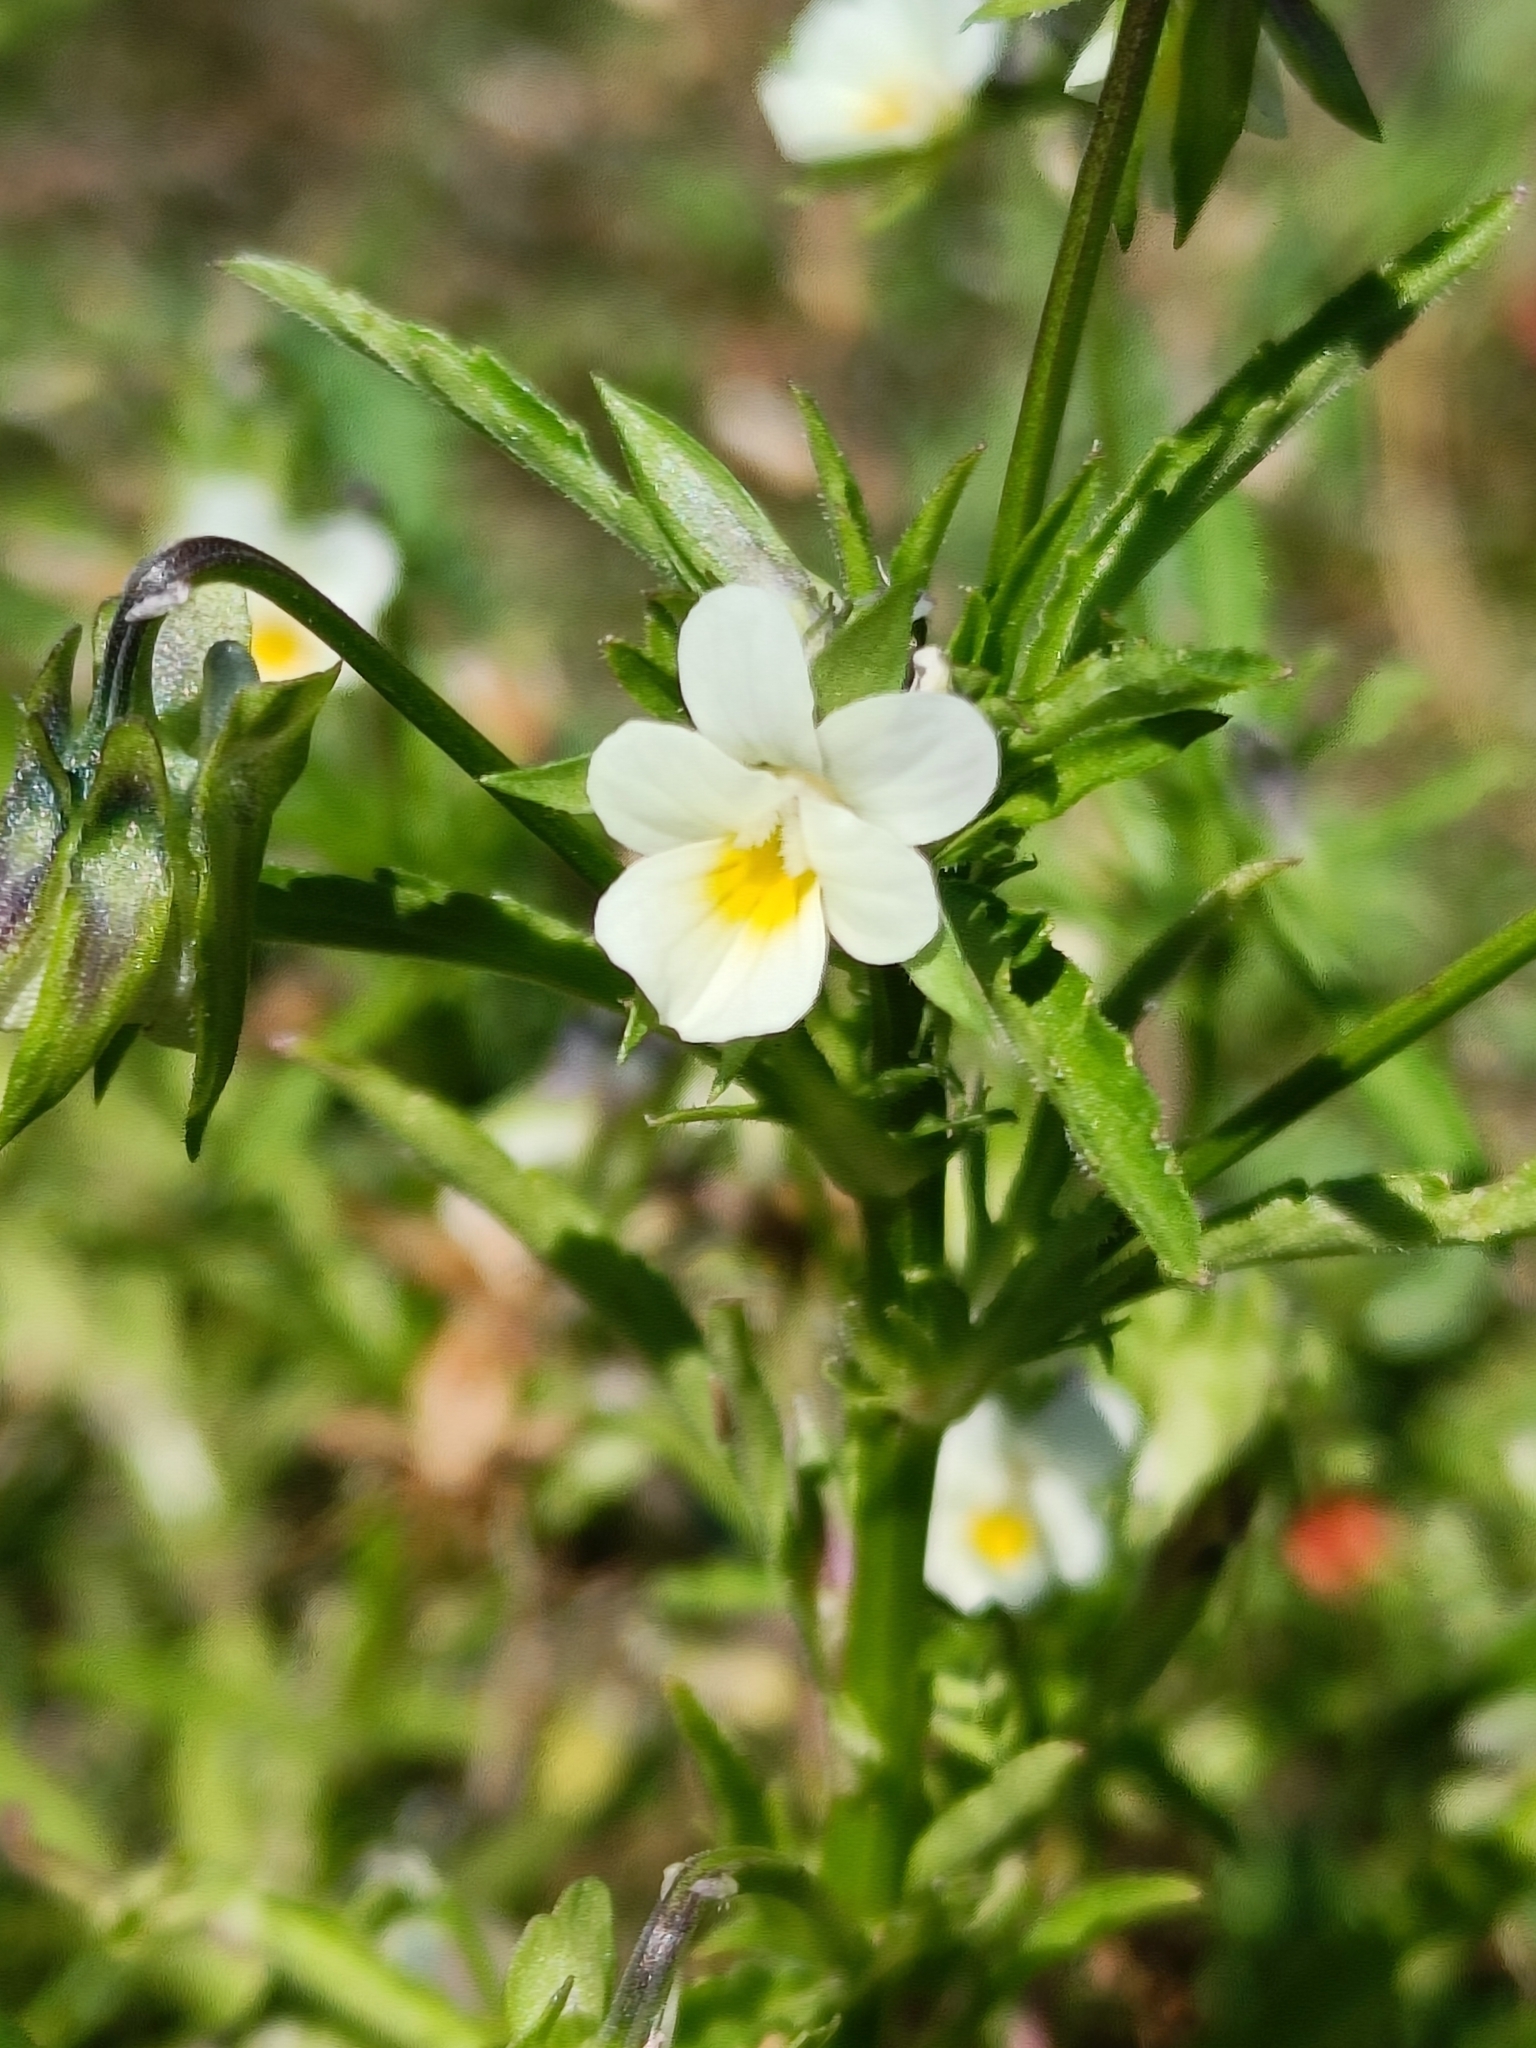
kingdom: Plantae
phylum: Tracheophyta
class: Magnoliopsida
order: Malpighiales
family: Violaceae
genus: Viola
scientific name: Viola arvensis
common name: Field pansy
